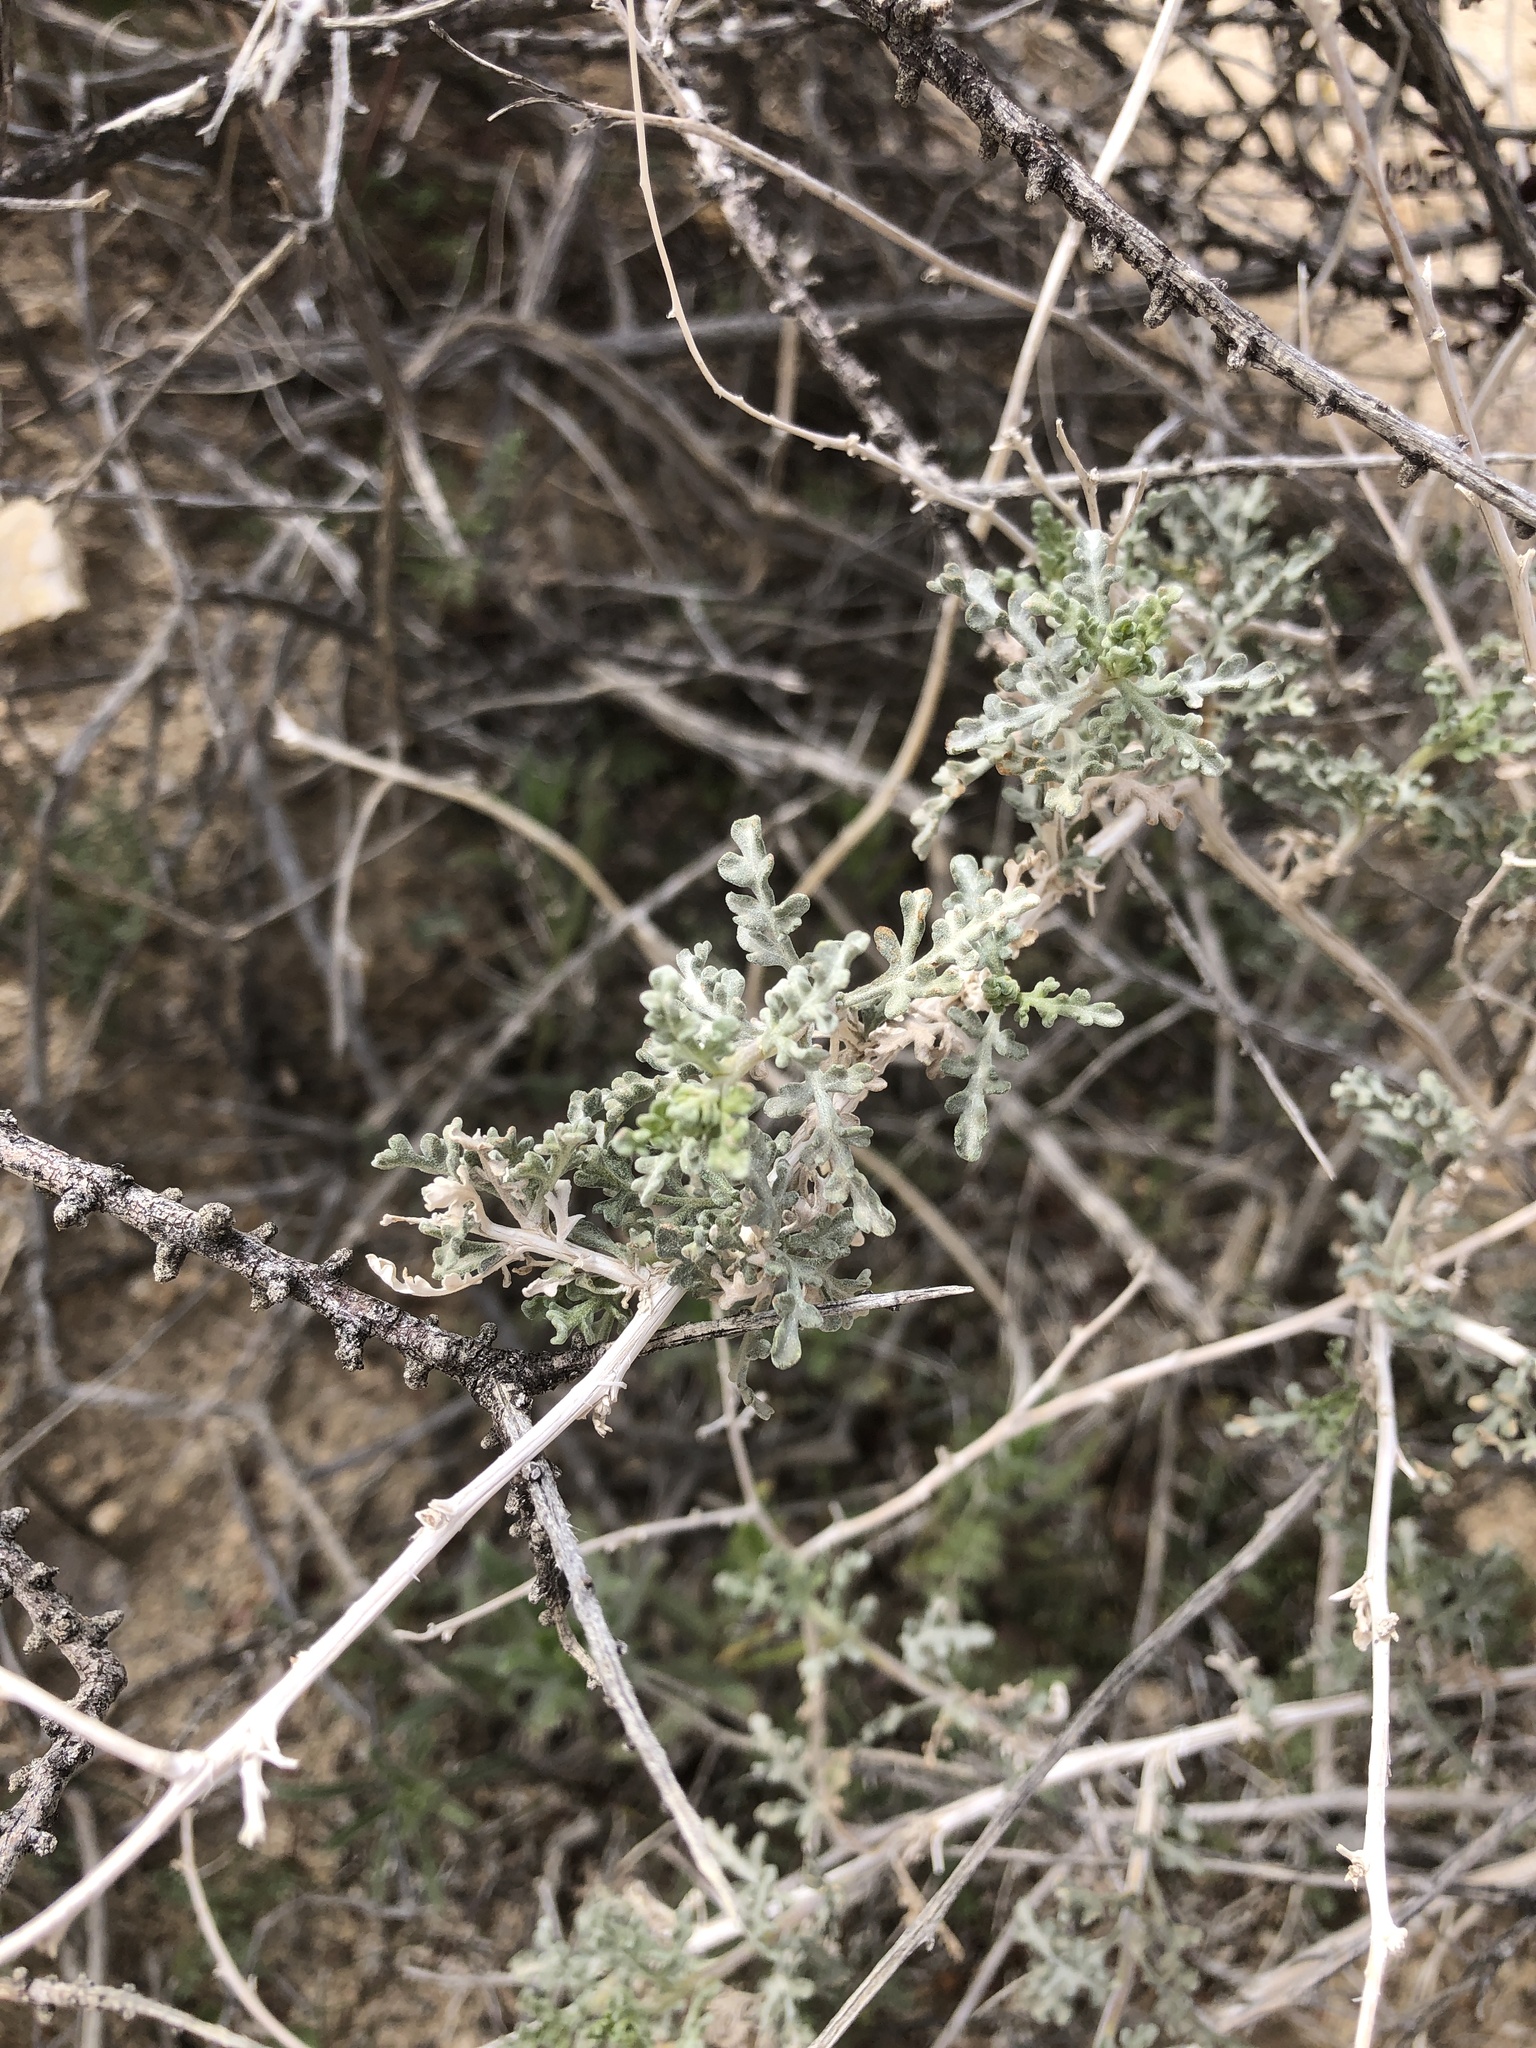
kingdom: Plantae
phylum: Tracheophyta
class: Magnoliopsida
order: Asterales
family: Asteraceae
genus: Ambrosia
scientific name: Ambrosia dumosa
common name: Bur-sage
